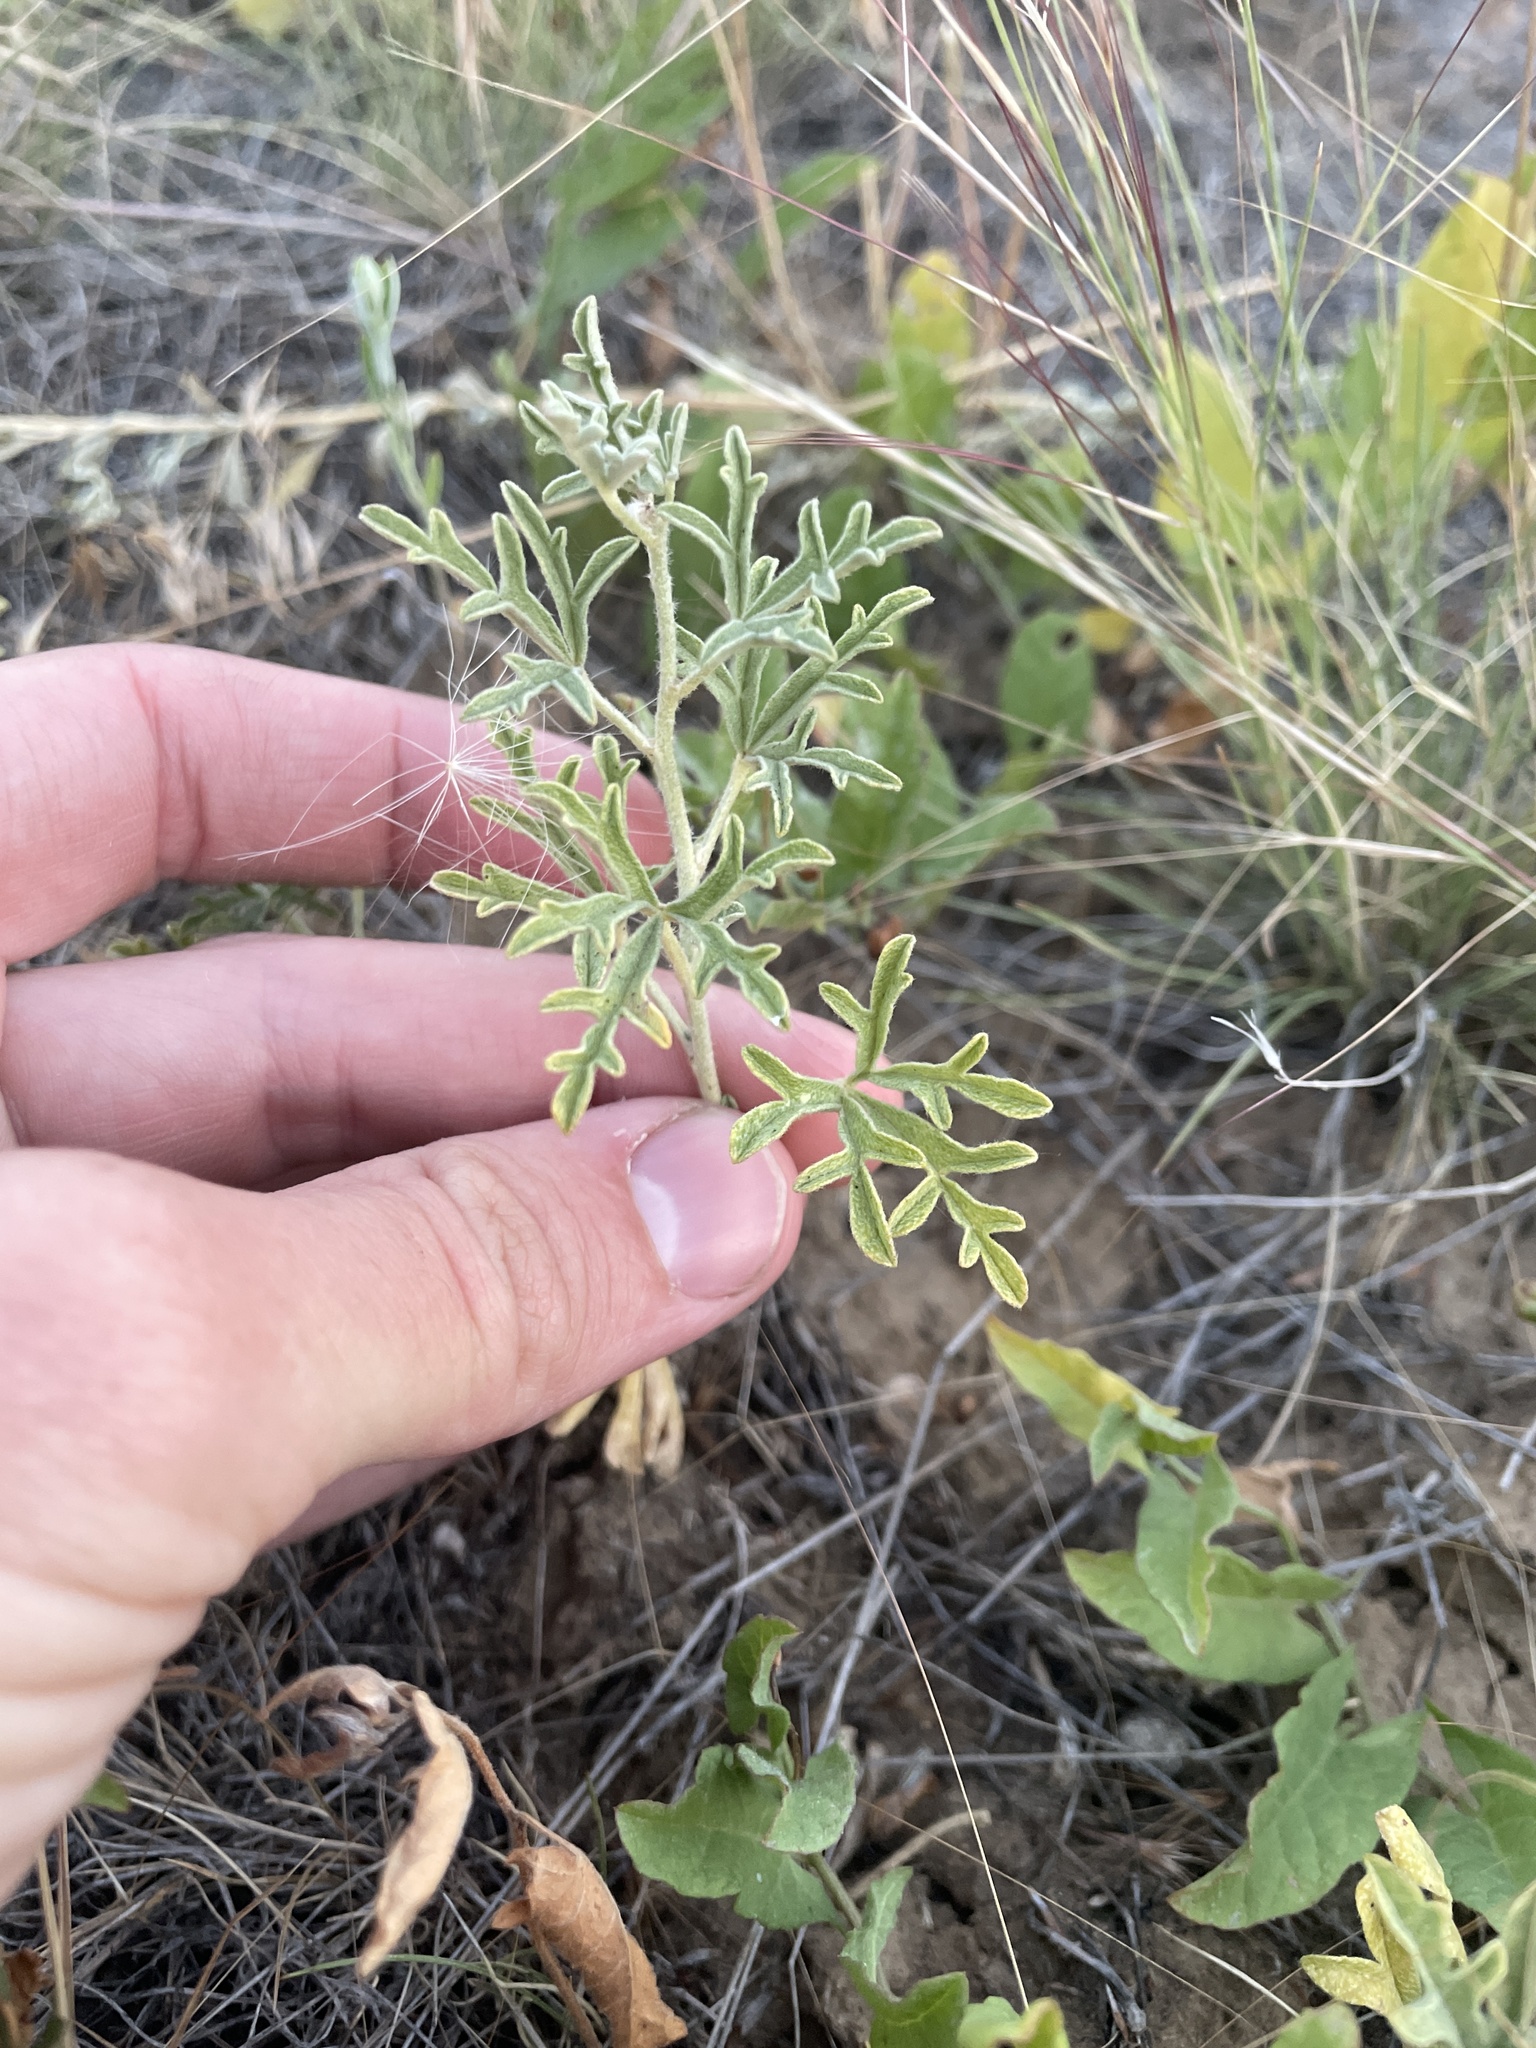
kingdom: Plantae
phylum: Tracheophyta
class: Magnoliopsida
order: Malvales
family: Malvaceae
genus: Sphaeralcea
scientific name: Sphaeralcea coccinea
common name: Moss-rose
